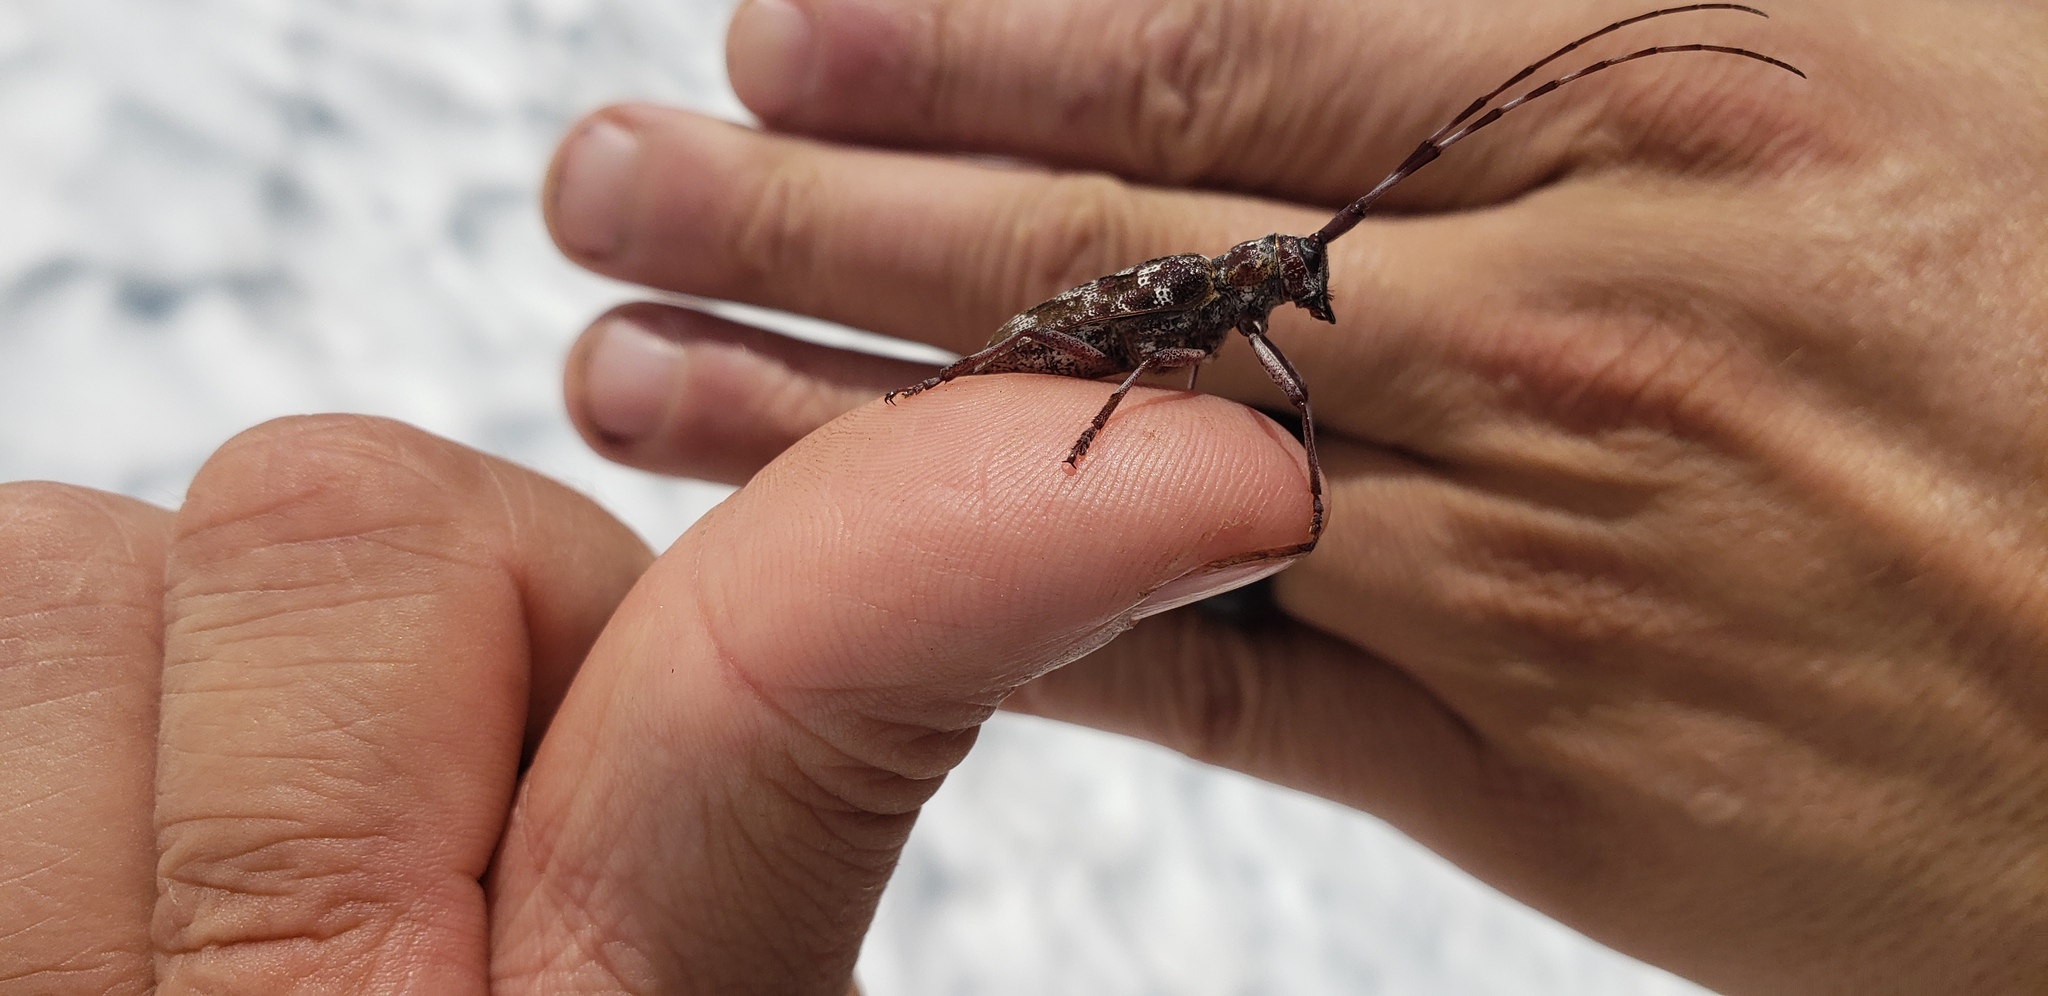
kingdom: Animalia
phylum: Arthropoda
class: Insecta
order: Coleoptera
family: Cerambycidae
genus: Monochamus
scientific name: Monochamus obtusus
